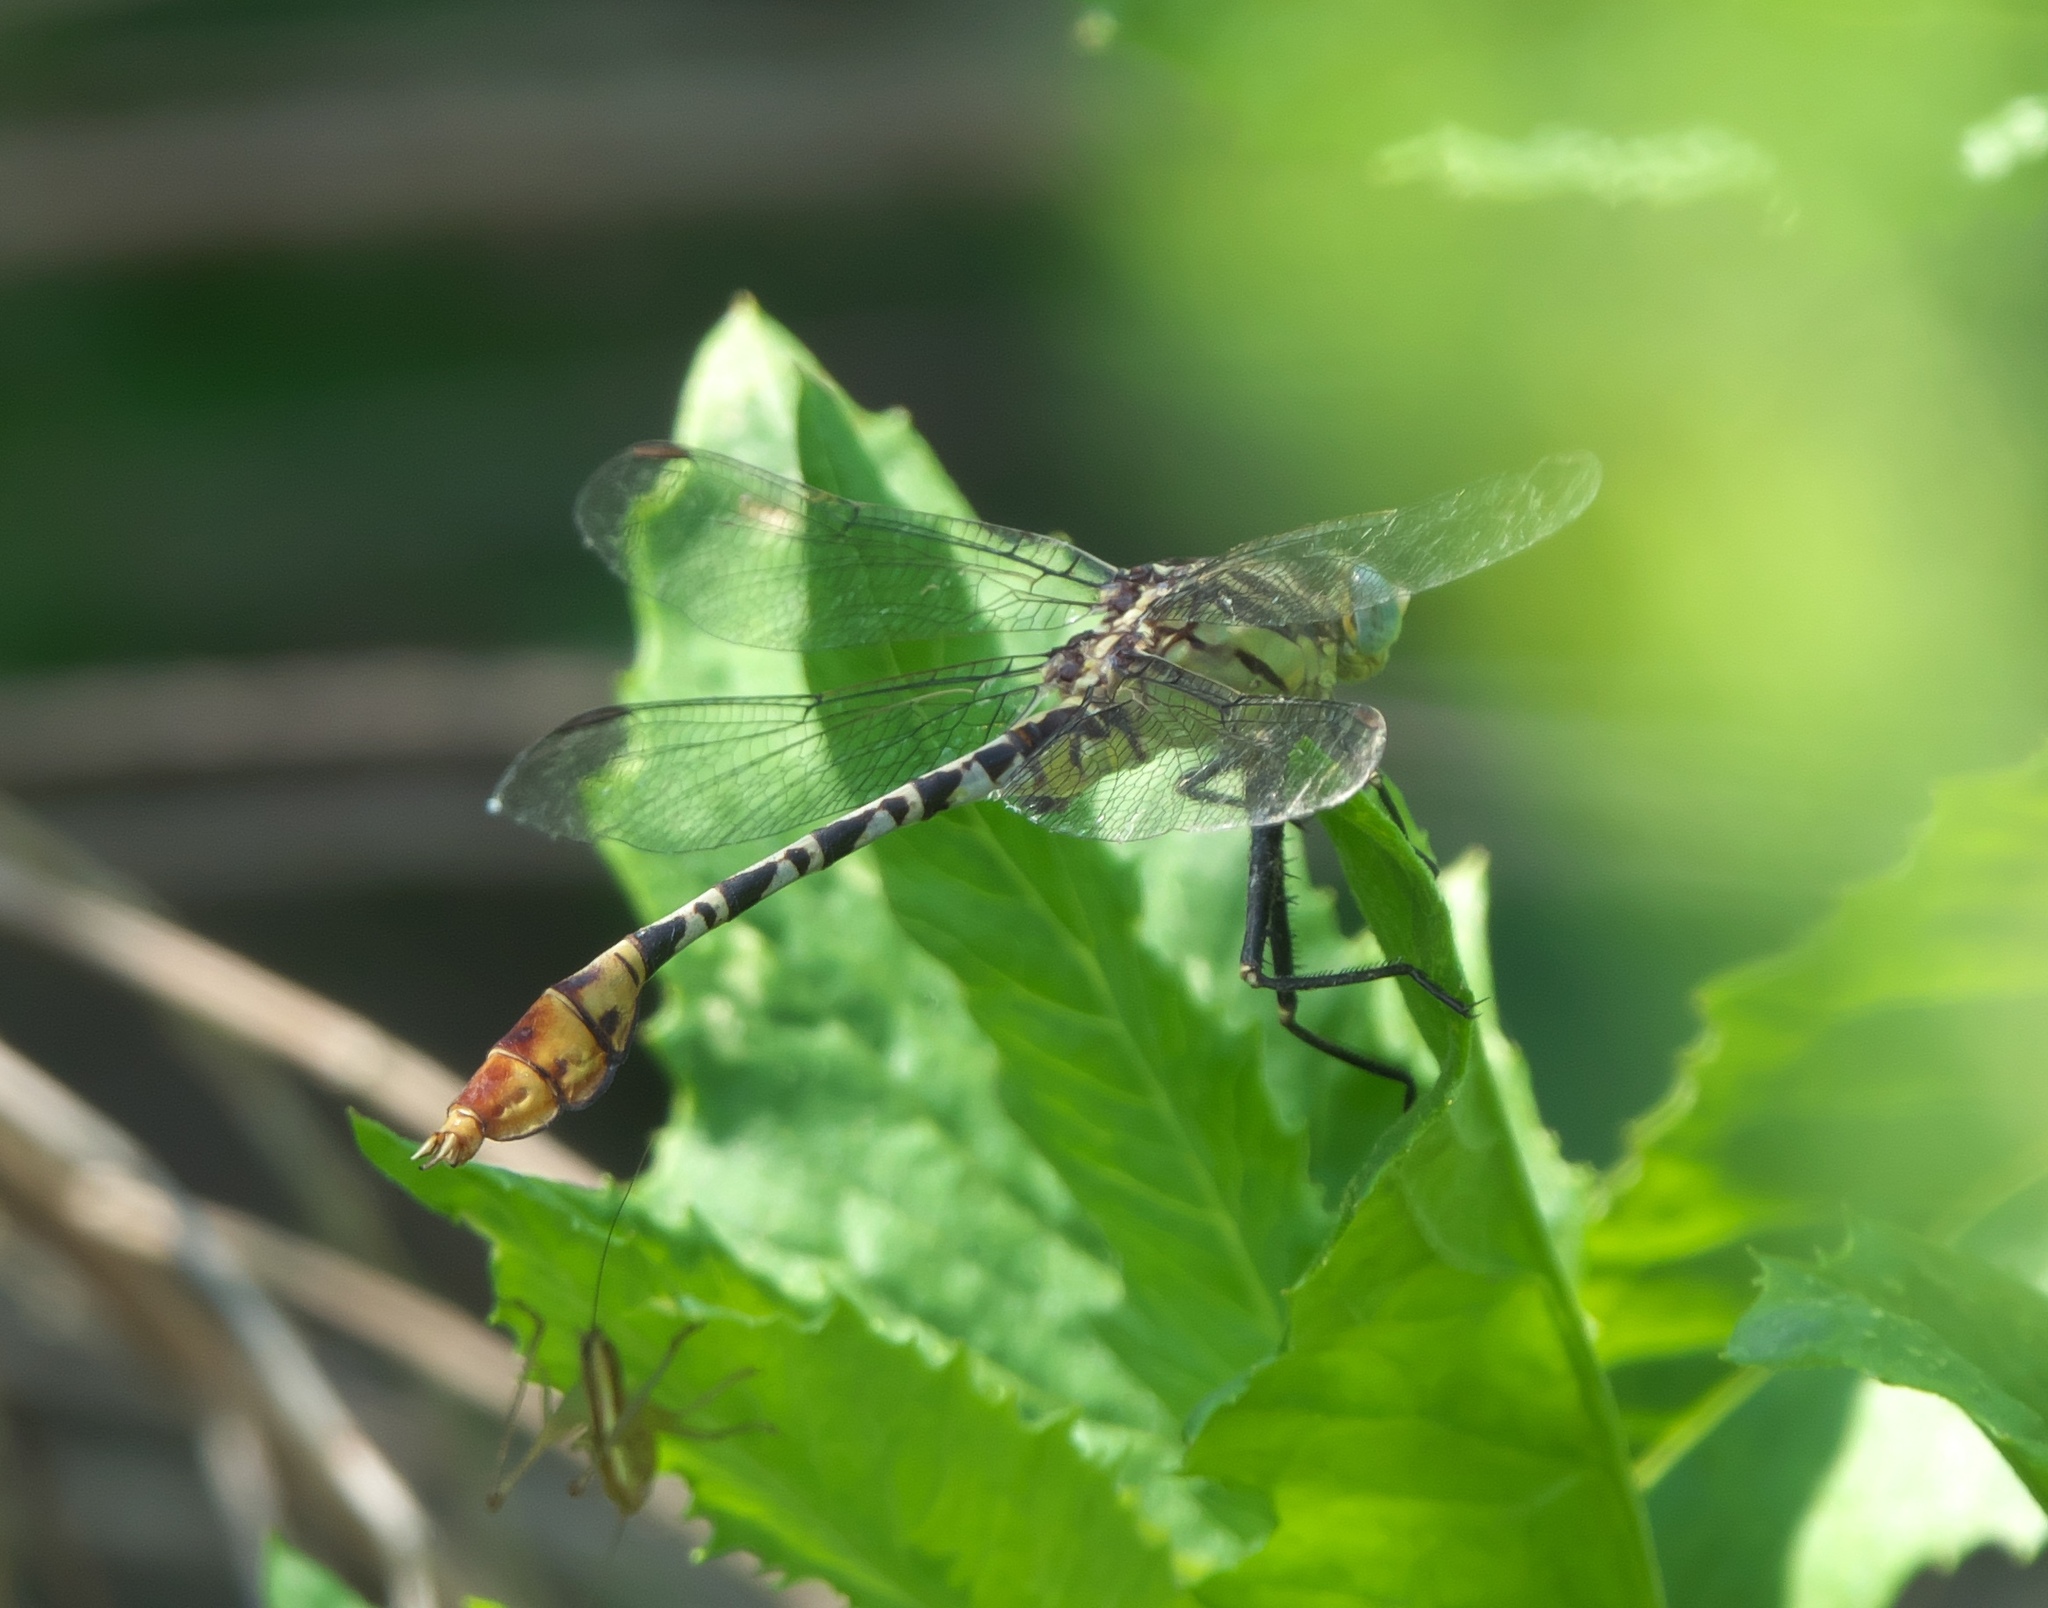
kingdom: Animalia
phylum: Arthropoda
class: Insecta
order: Odonata
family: Gomphidae
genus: Dromogomphus
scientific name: Dromogomphus spoliatus
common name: Flag-tailed spinyleg
